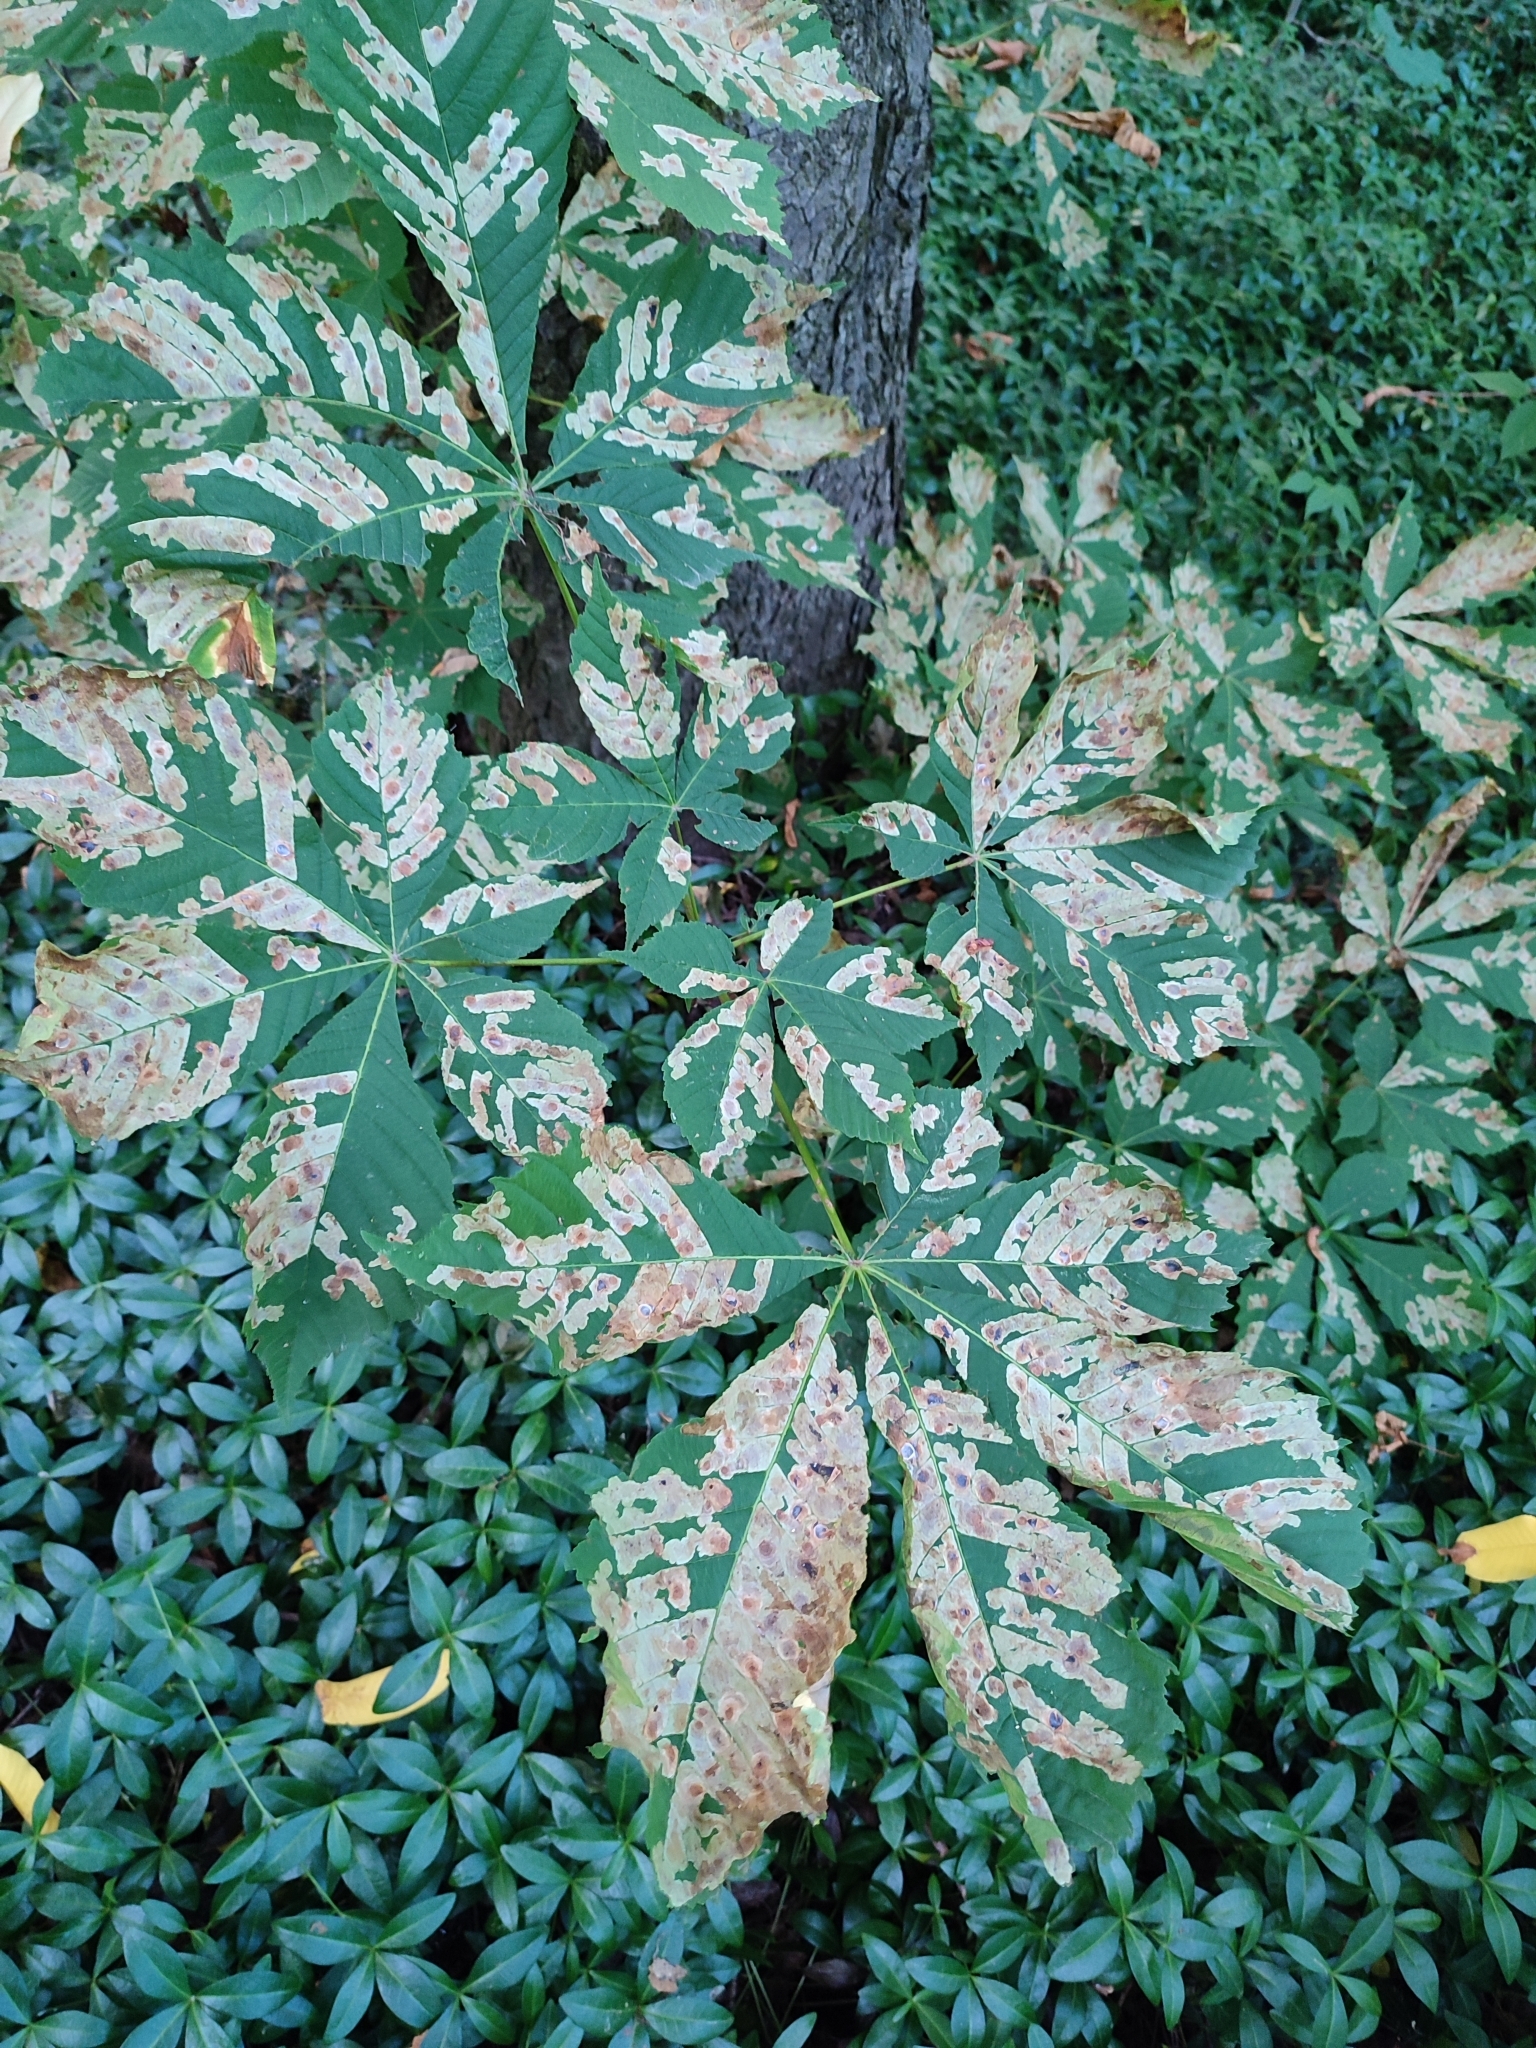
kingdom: Animalia
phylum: Arthropoda
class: Insecta
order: Lepidoptera
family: Gracillariidae
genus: Cameraria
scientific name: Cameraria ohridella
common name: Horse-chestnut leaf-miner
